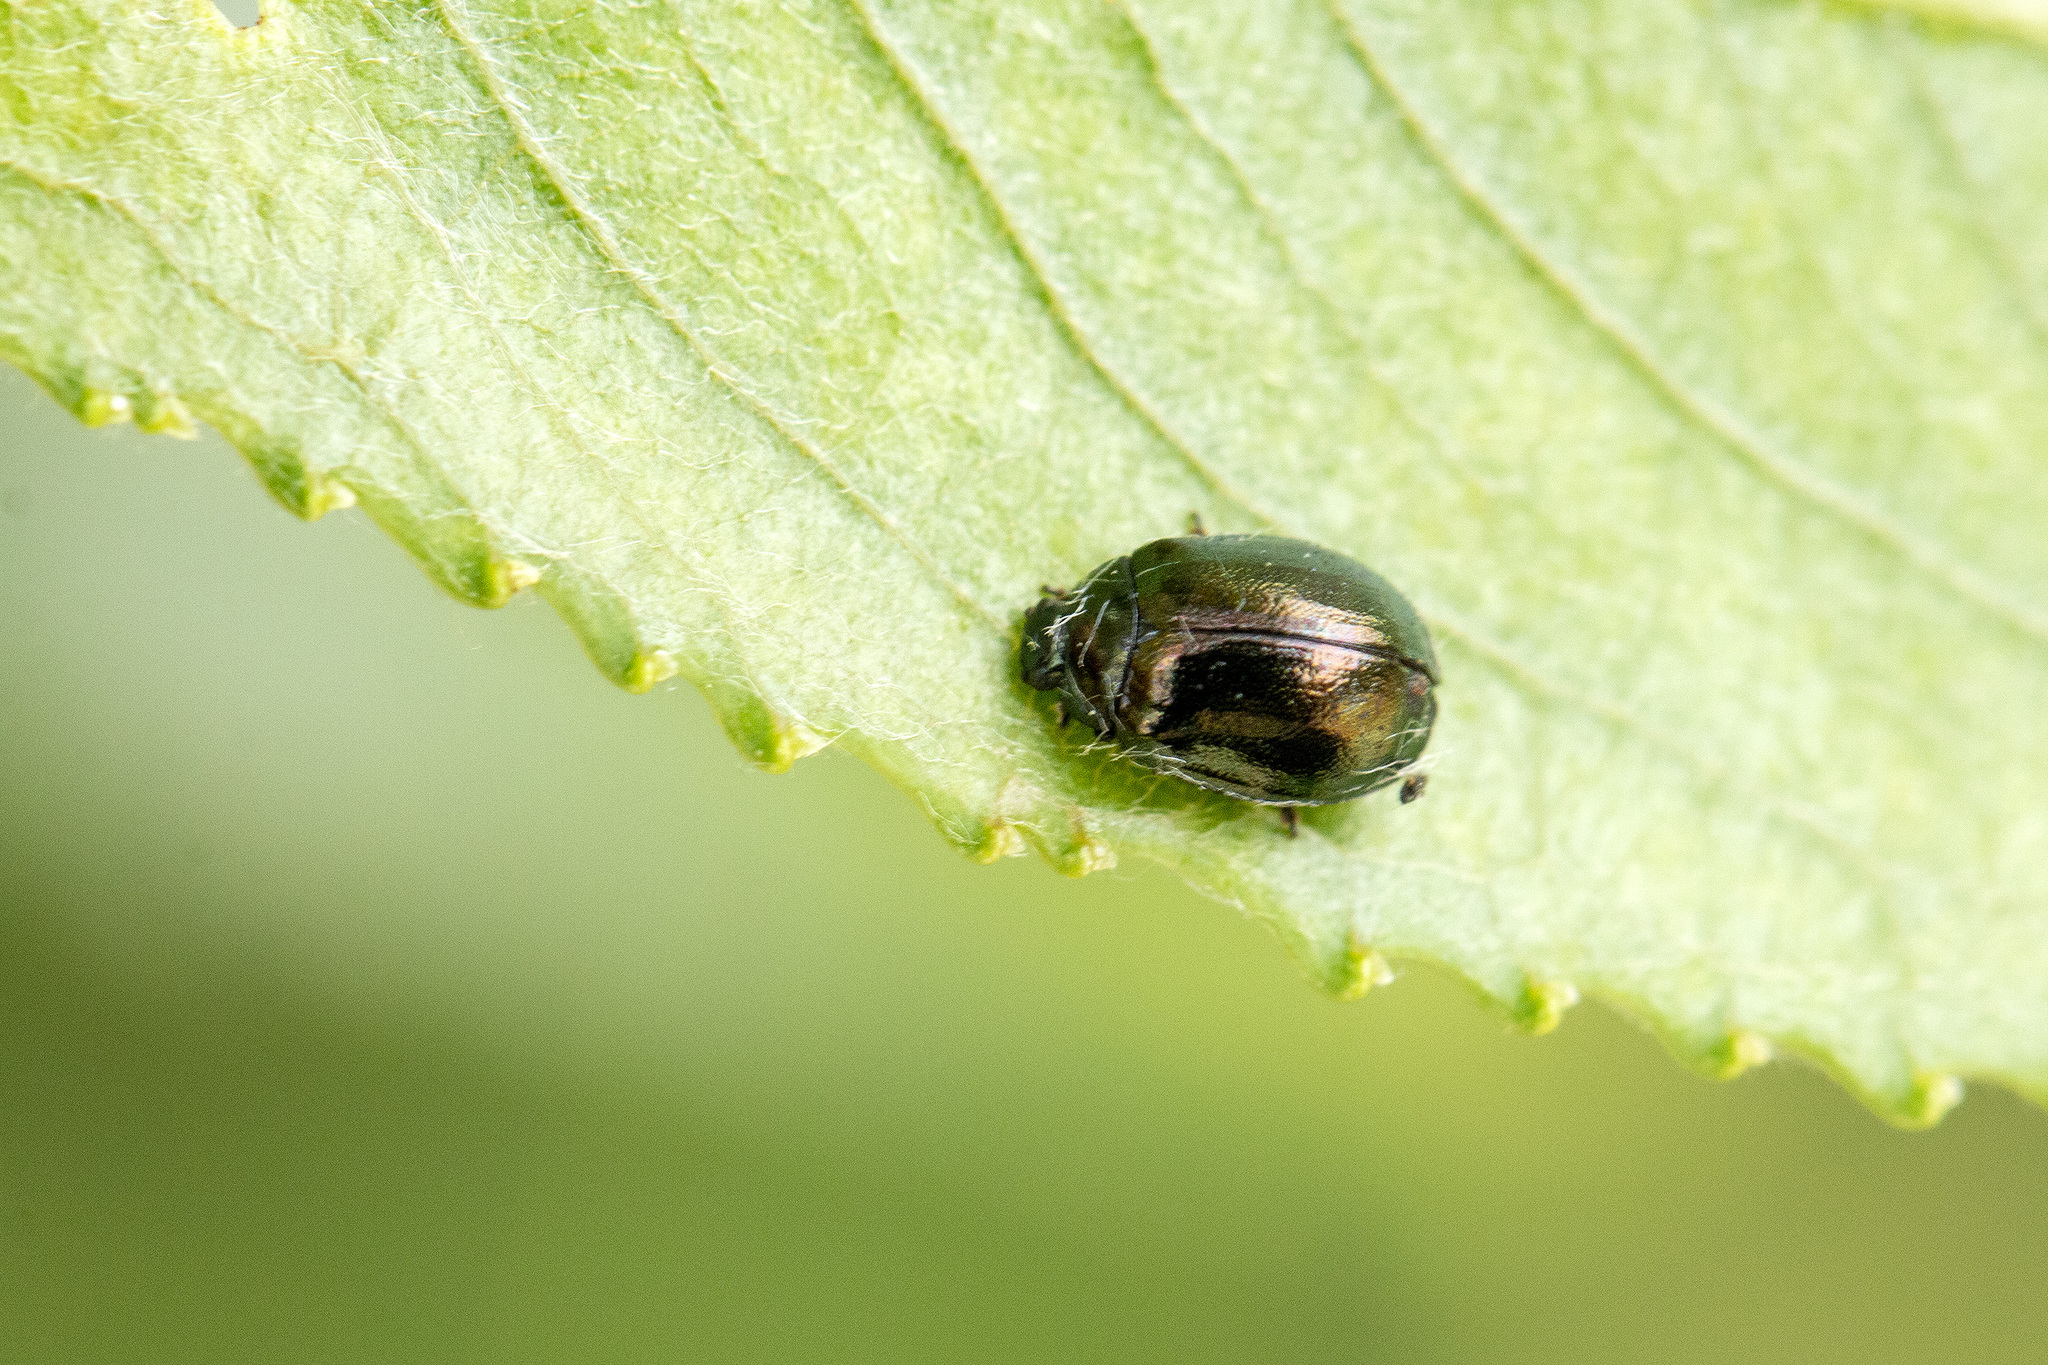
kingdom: Animalia
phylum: Arthropoda
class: Insecta
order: Coleoptera
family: Chrysomelidae
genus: Plagiodera
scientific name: Plagiodera versicolora
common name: Imported willow leaf beetle
